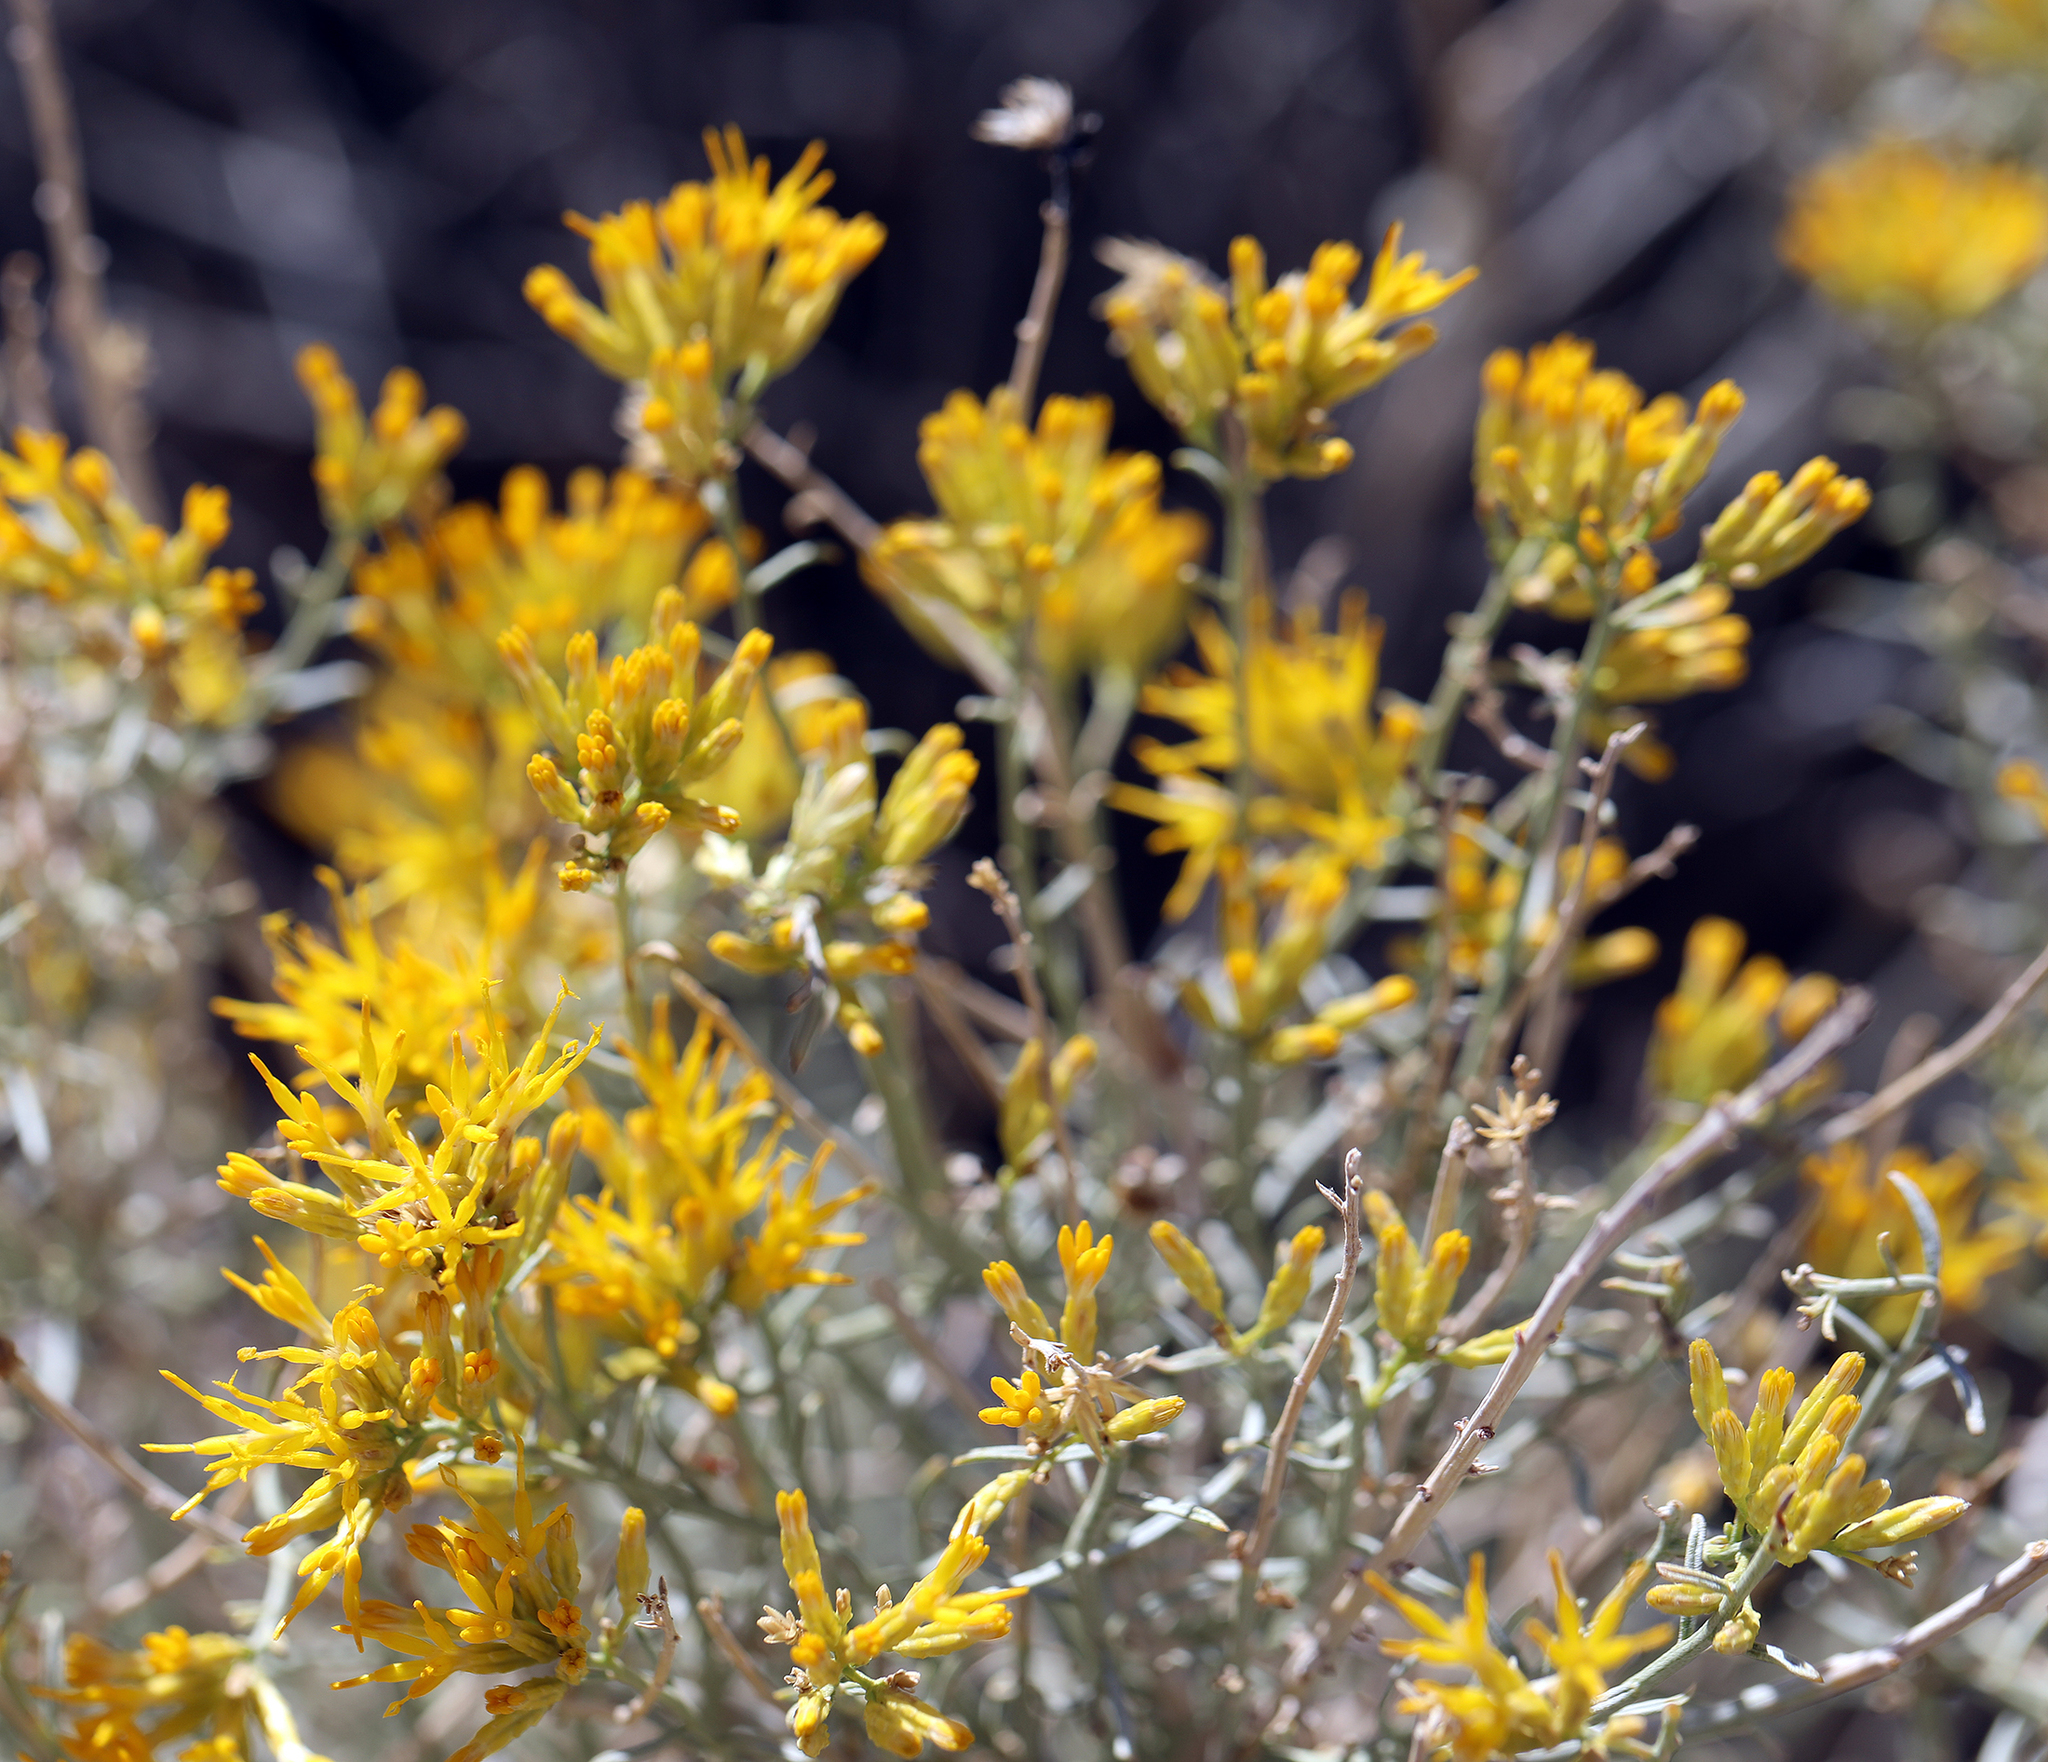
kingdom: Plantae
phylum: Tracheophyta
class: Magnoliopsida
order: Asterales
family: Asteraceae
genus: Ericameria
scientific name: Ericameria nauseosa
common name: Rubber rabbitbrush
